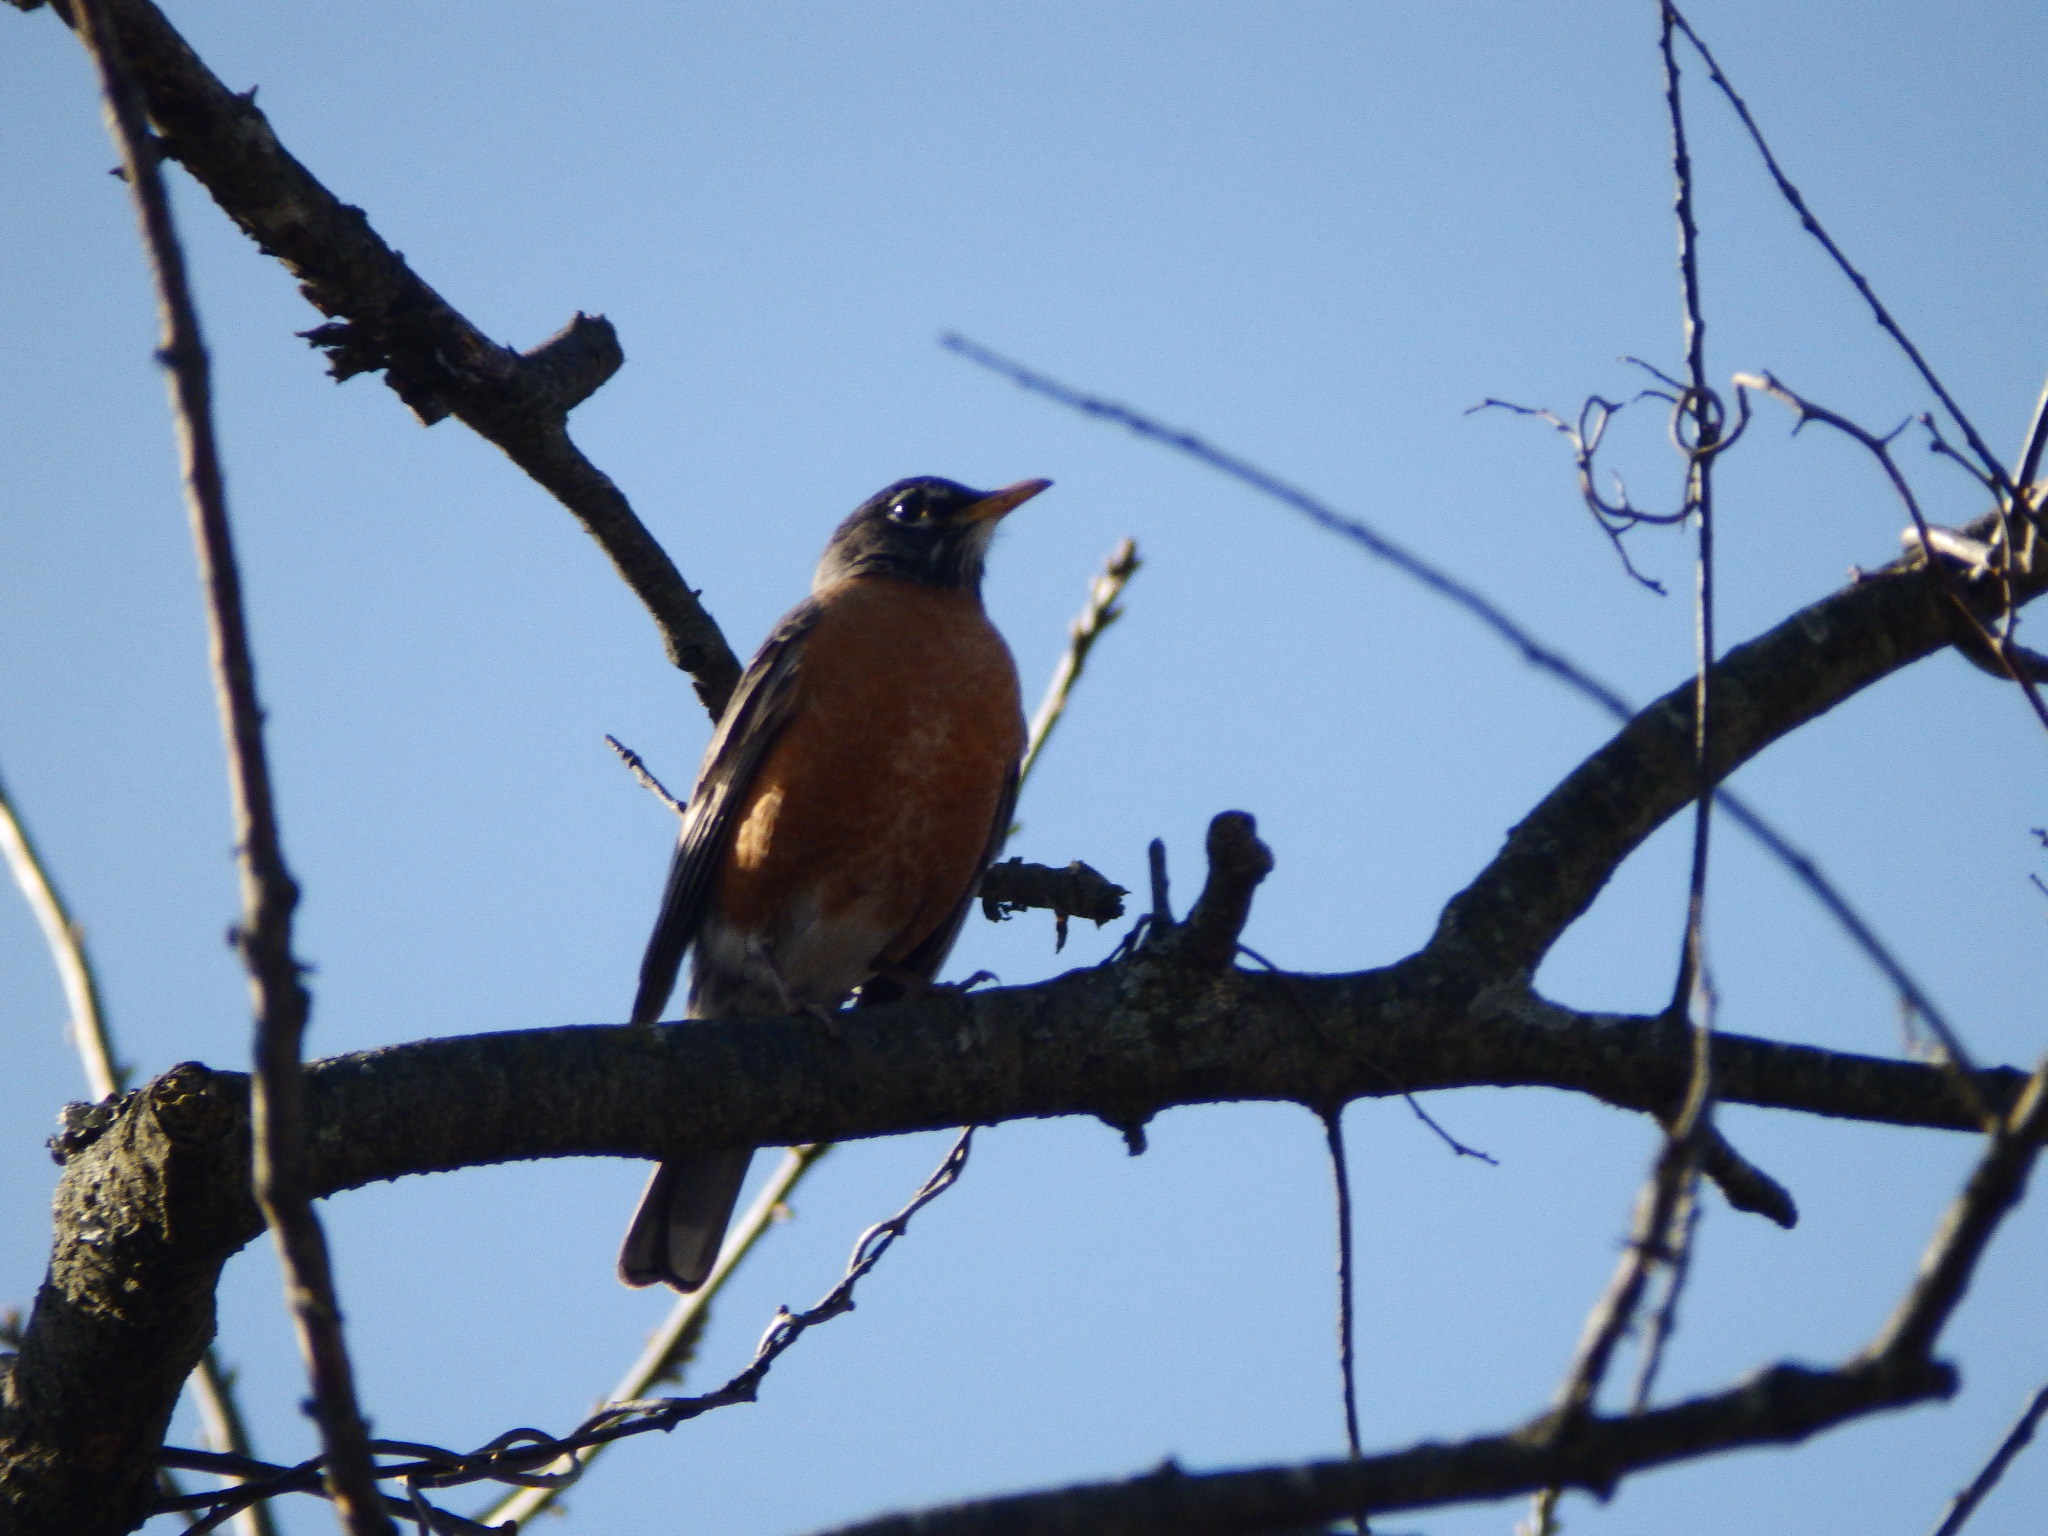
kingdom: Animalia
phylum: Chordata
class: Aves
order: Passeriformes
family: Turdidae
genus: Turdus
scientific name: Turdus migratorius
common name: American robin
